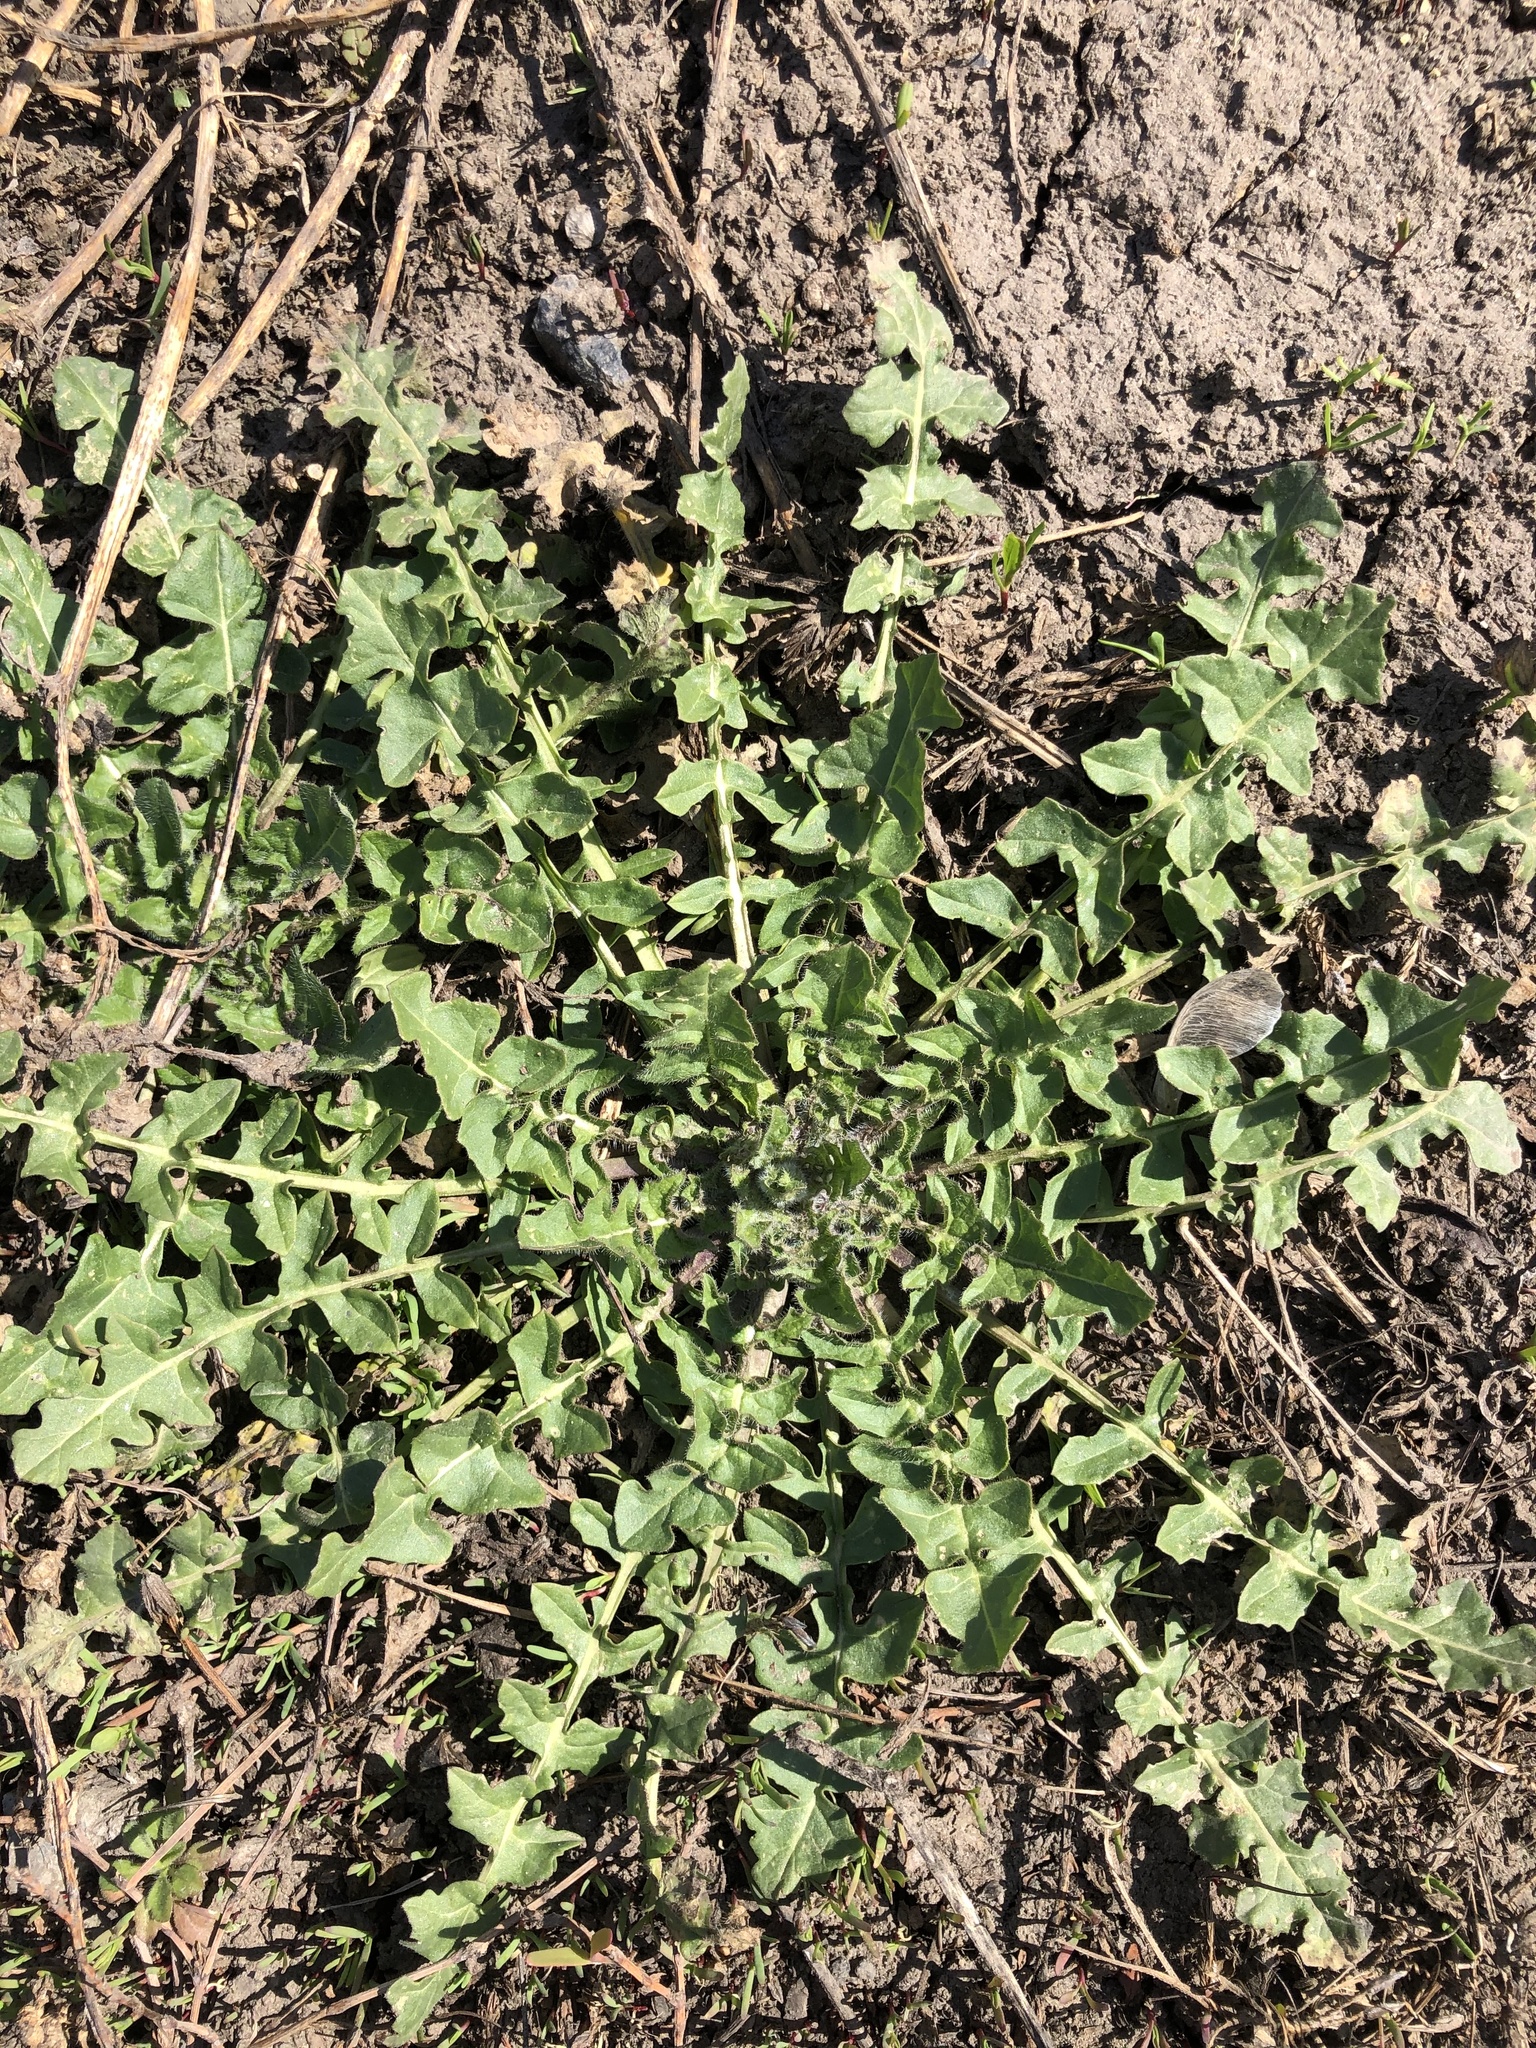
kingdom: Plantae
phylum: Tracheophyta
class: Magnoliopsida
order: Brassicales
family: Brassicaceae
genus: Sisymbrium
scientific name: Sisymbrium loeselii
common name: False london-rocket
